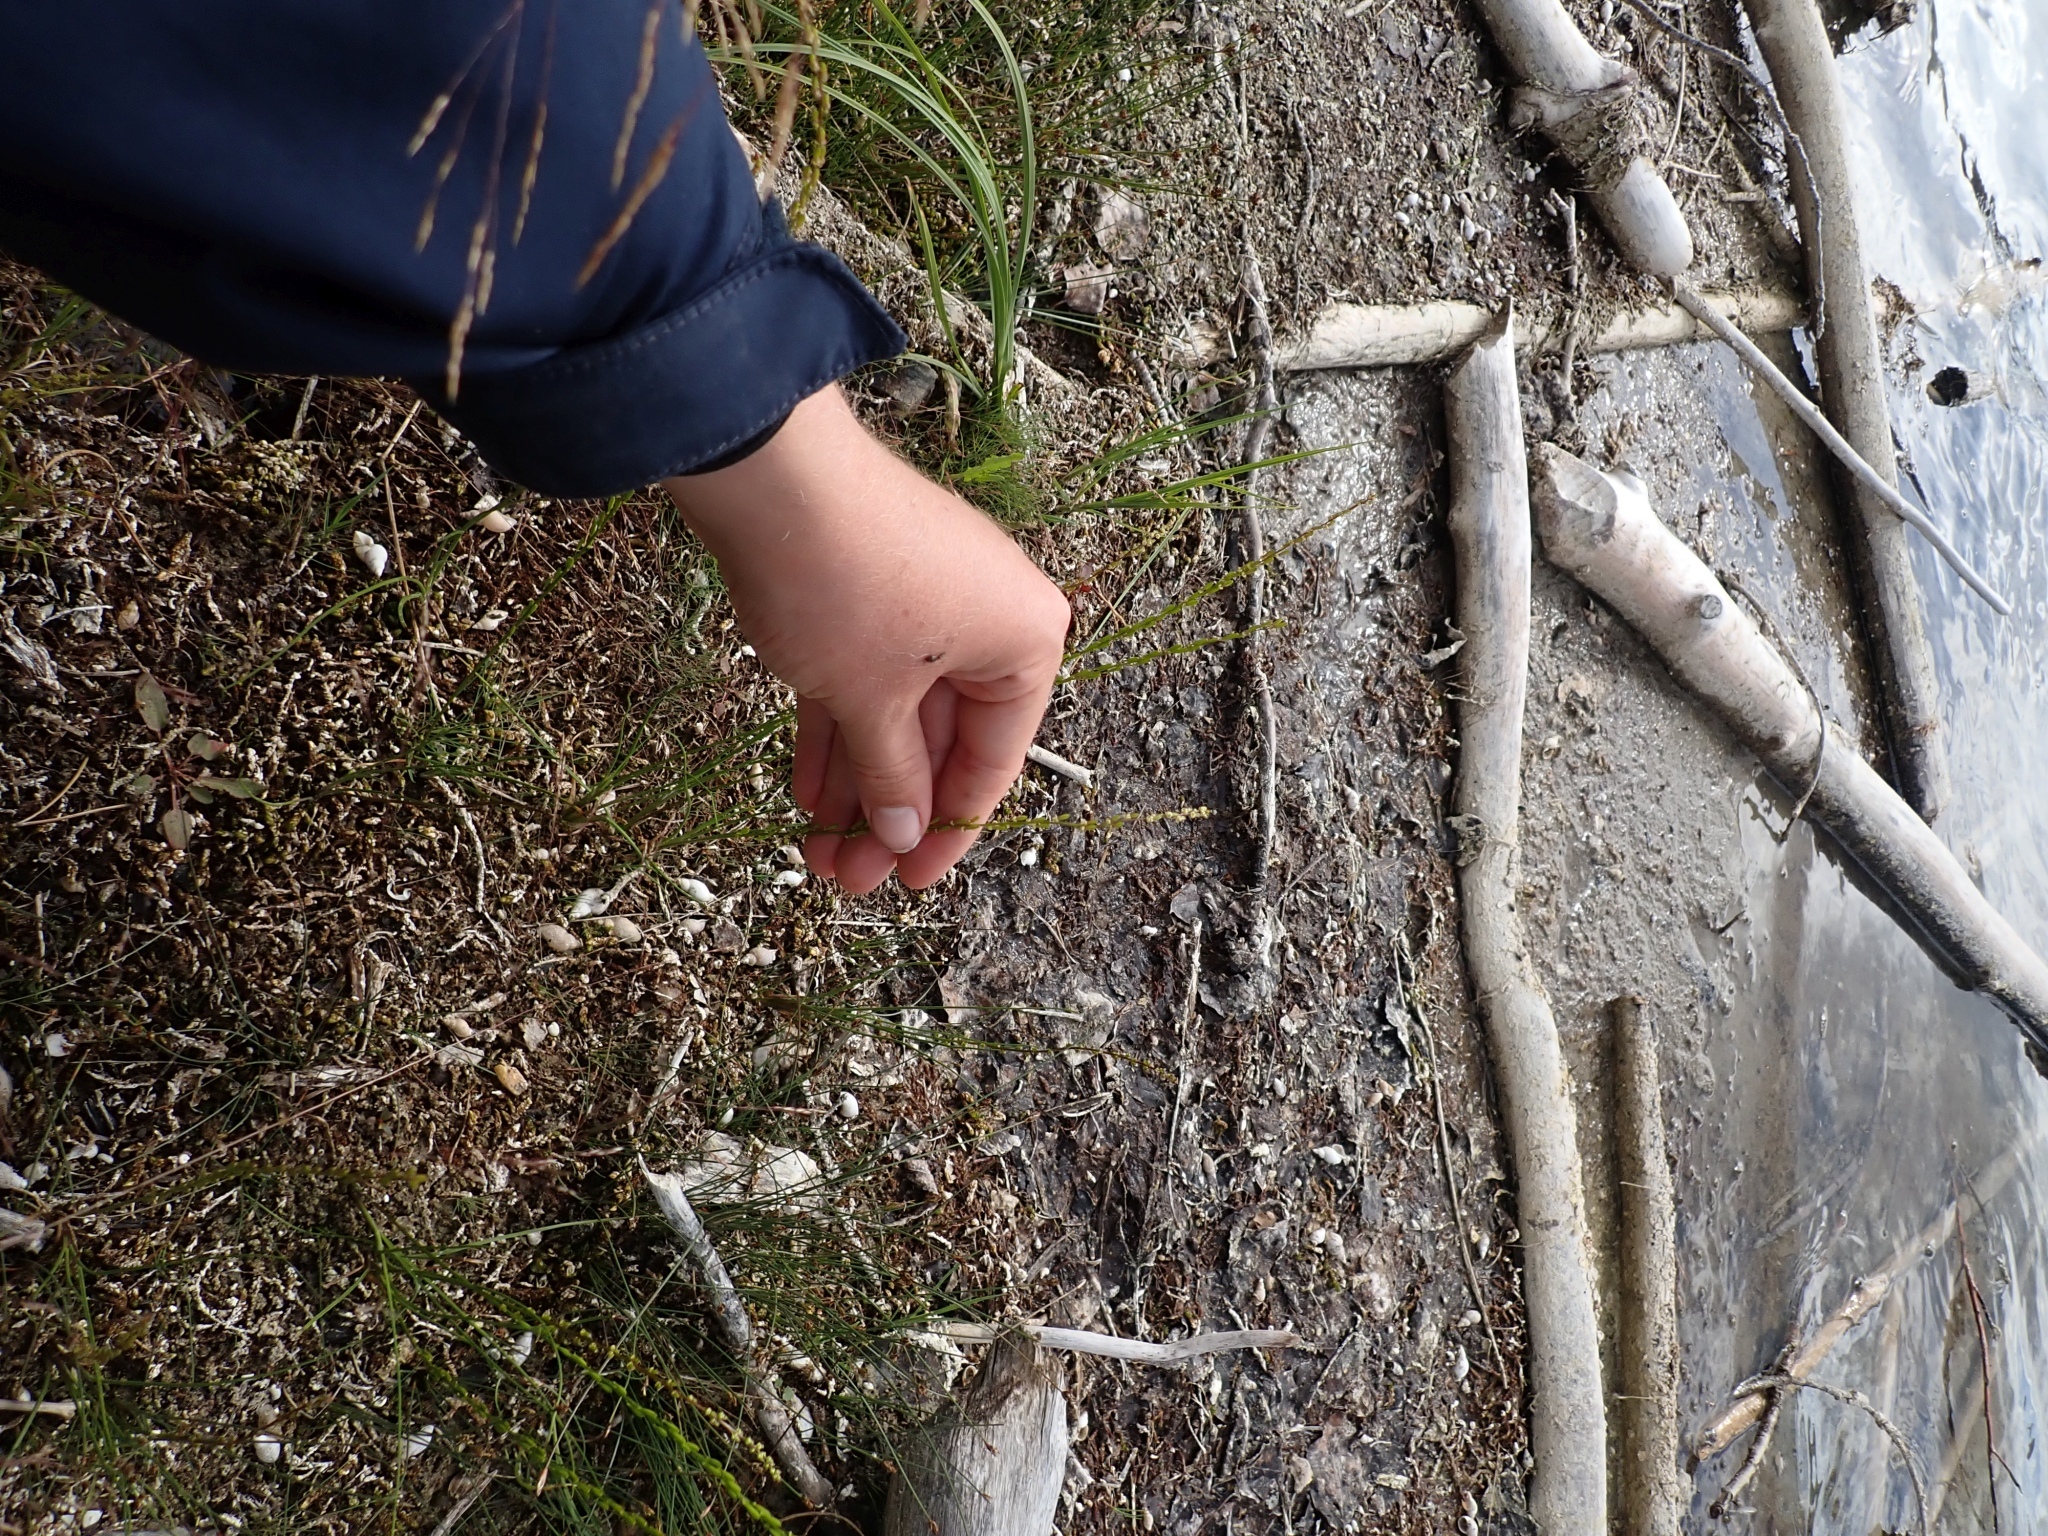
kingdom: Plantae
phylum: Tracheophyta
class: Liliopsida
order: Alismatales
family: Juncaginaceae
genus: Triglochin
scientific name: Triglochin palustris
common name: Marsh arrowgrass
